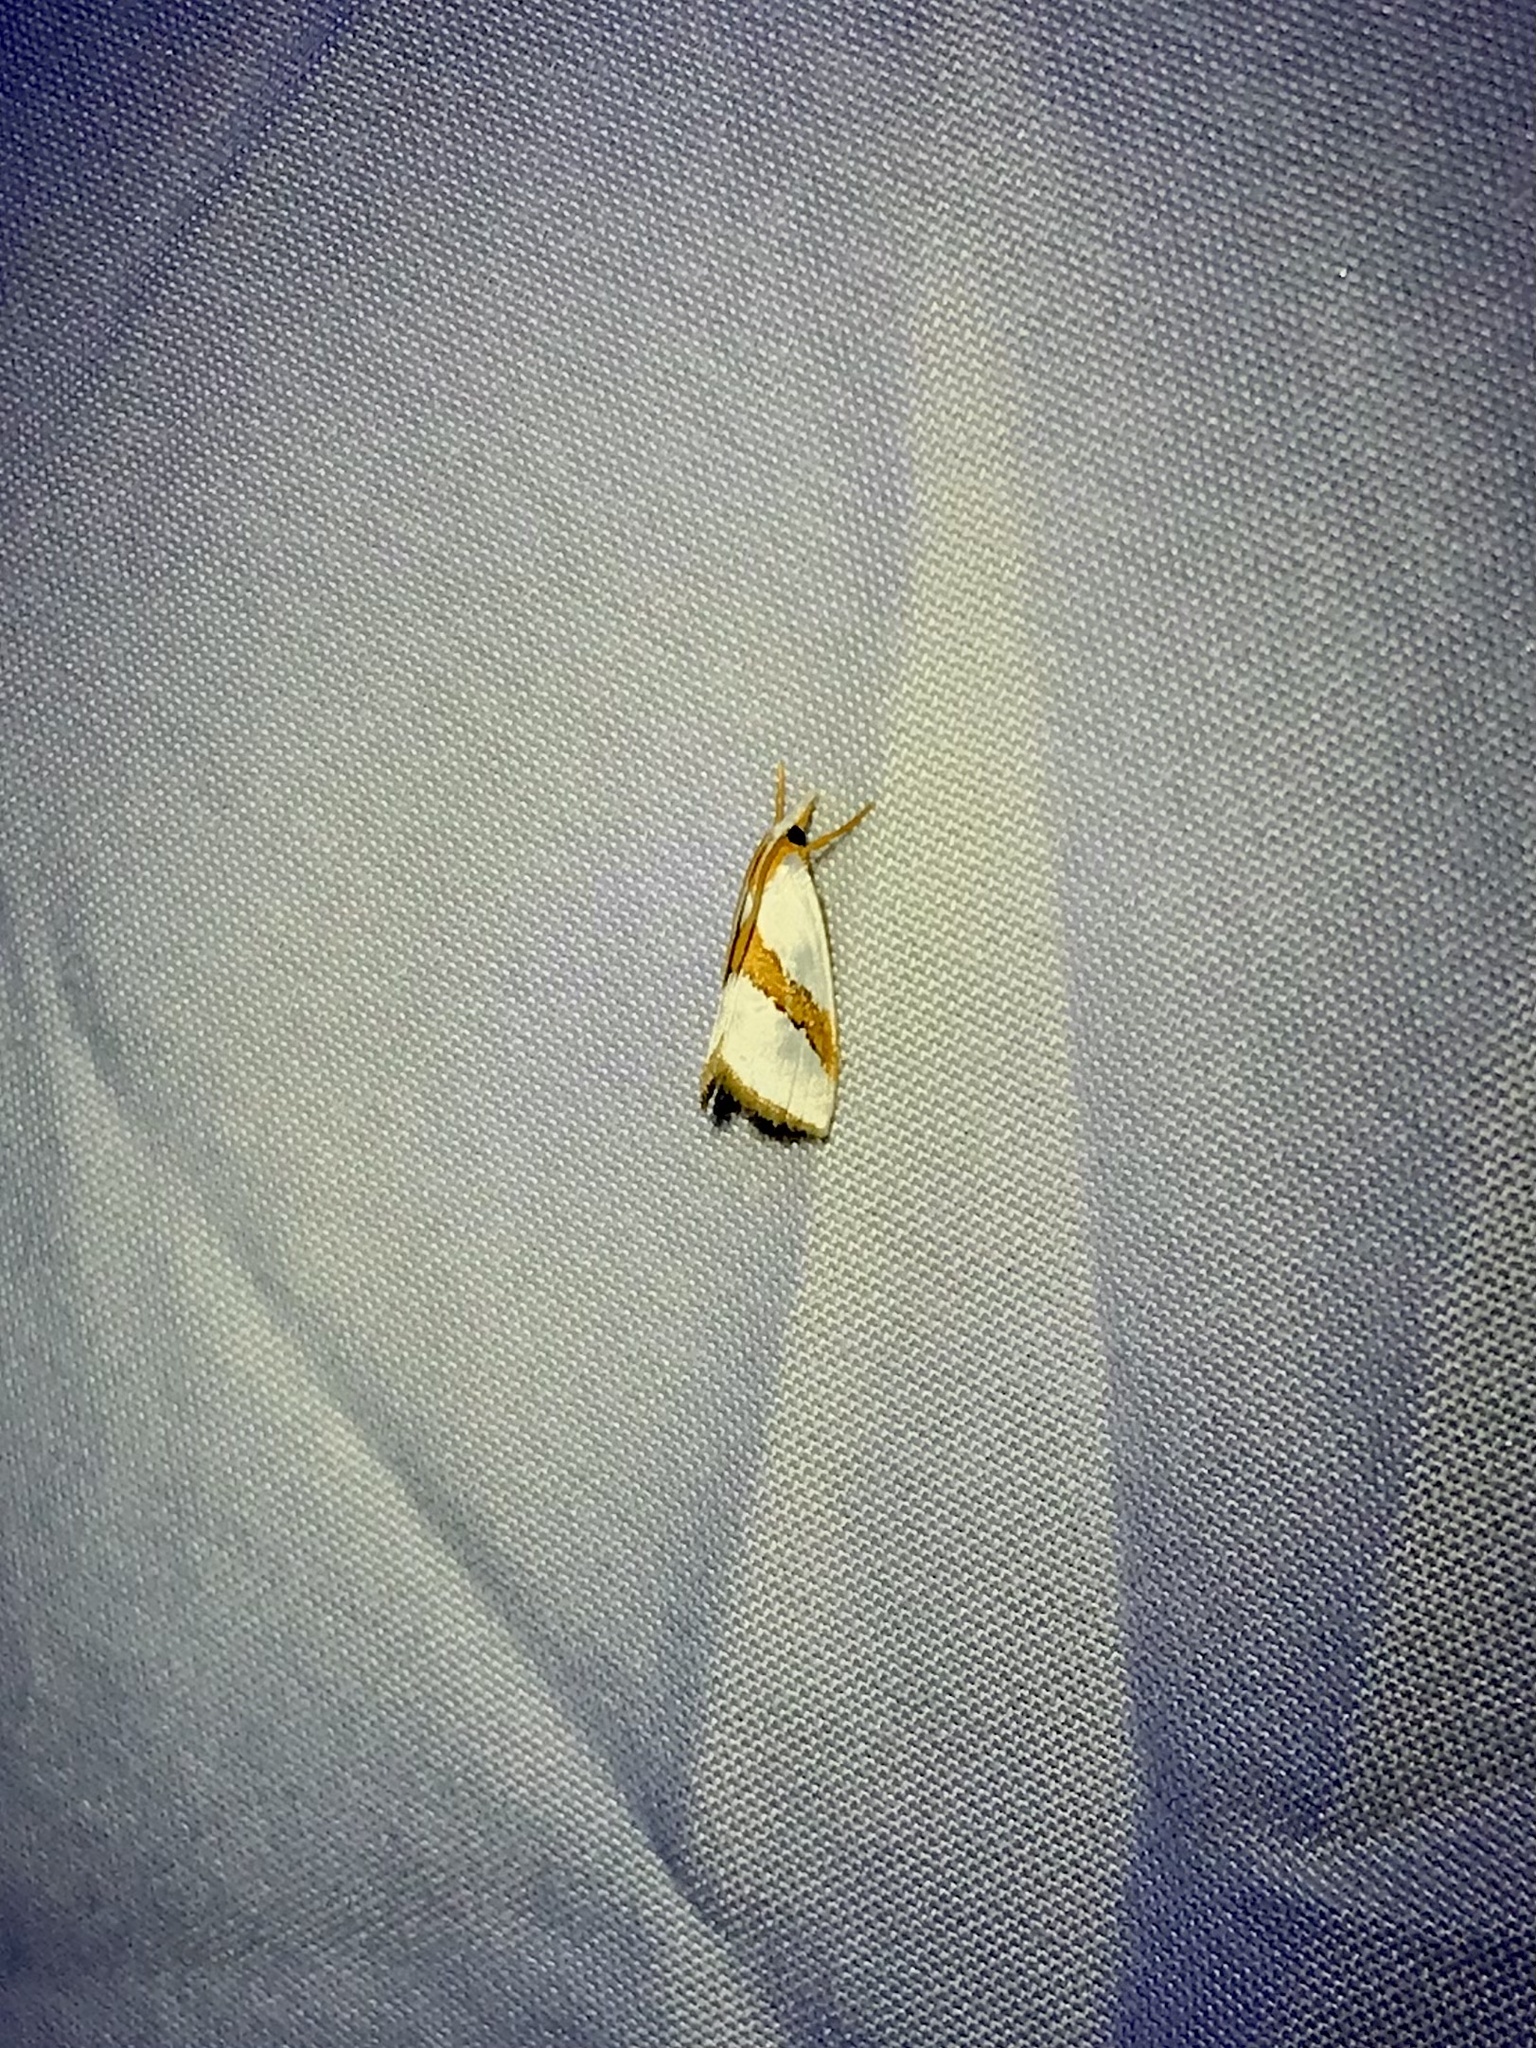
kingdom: Animalia
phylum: Arthropoda
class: Insecta
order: Lepidoptera
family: Crambidae
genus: Vaxi
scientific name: Vaxi critica
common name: Straight-lined vaxi moth
